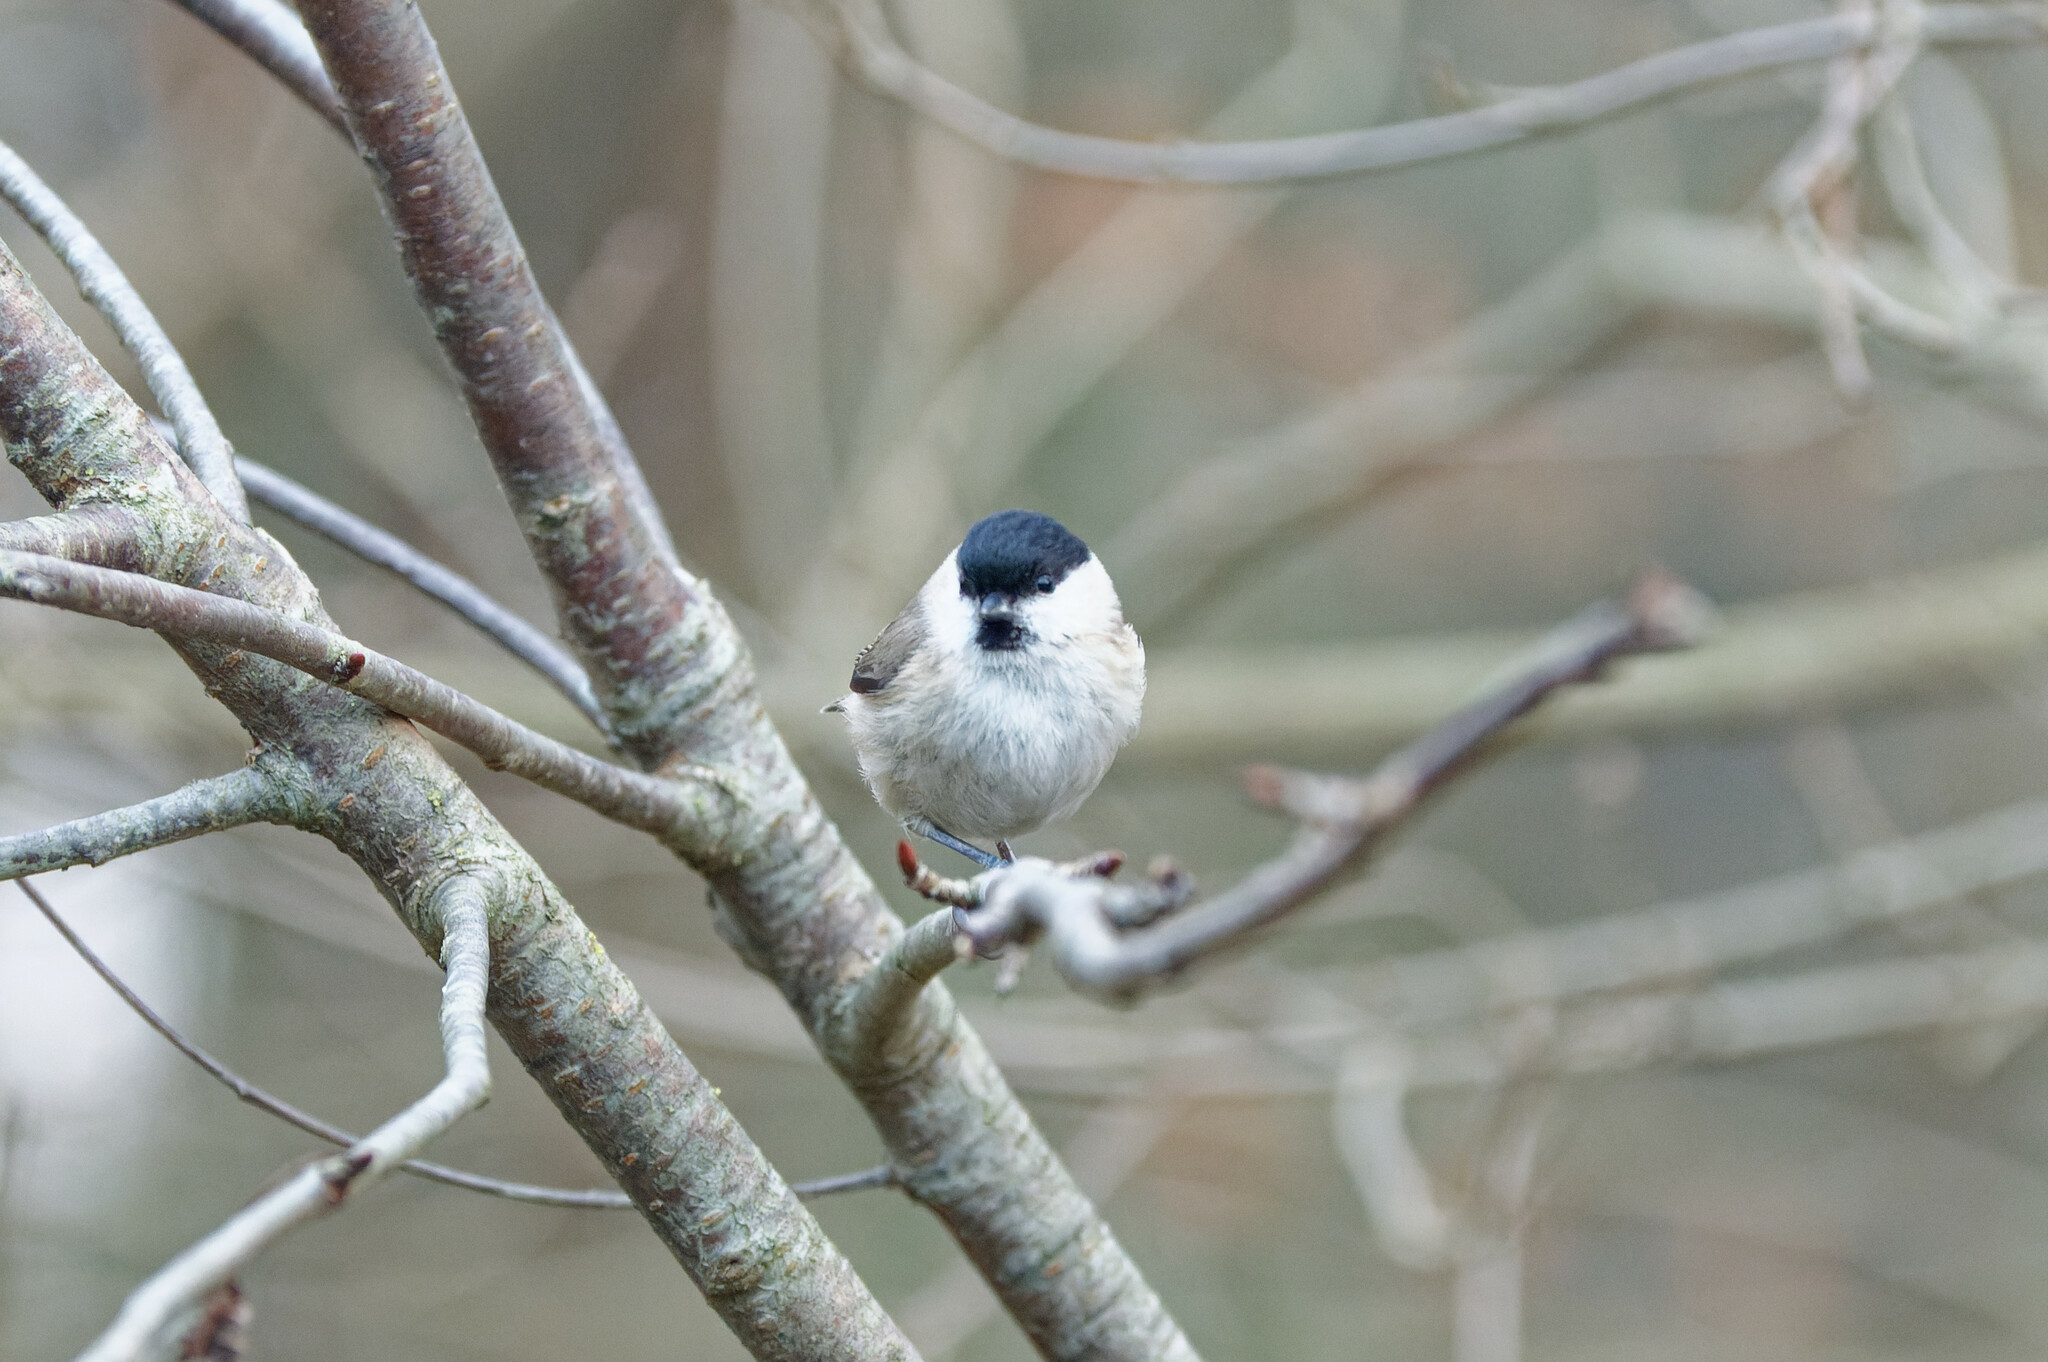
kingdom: Animalia
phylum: Chordata
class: Aves
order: Passeriformes
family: Paridae
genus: Poecile
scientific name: Poecile palustris
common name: Marsh tit
